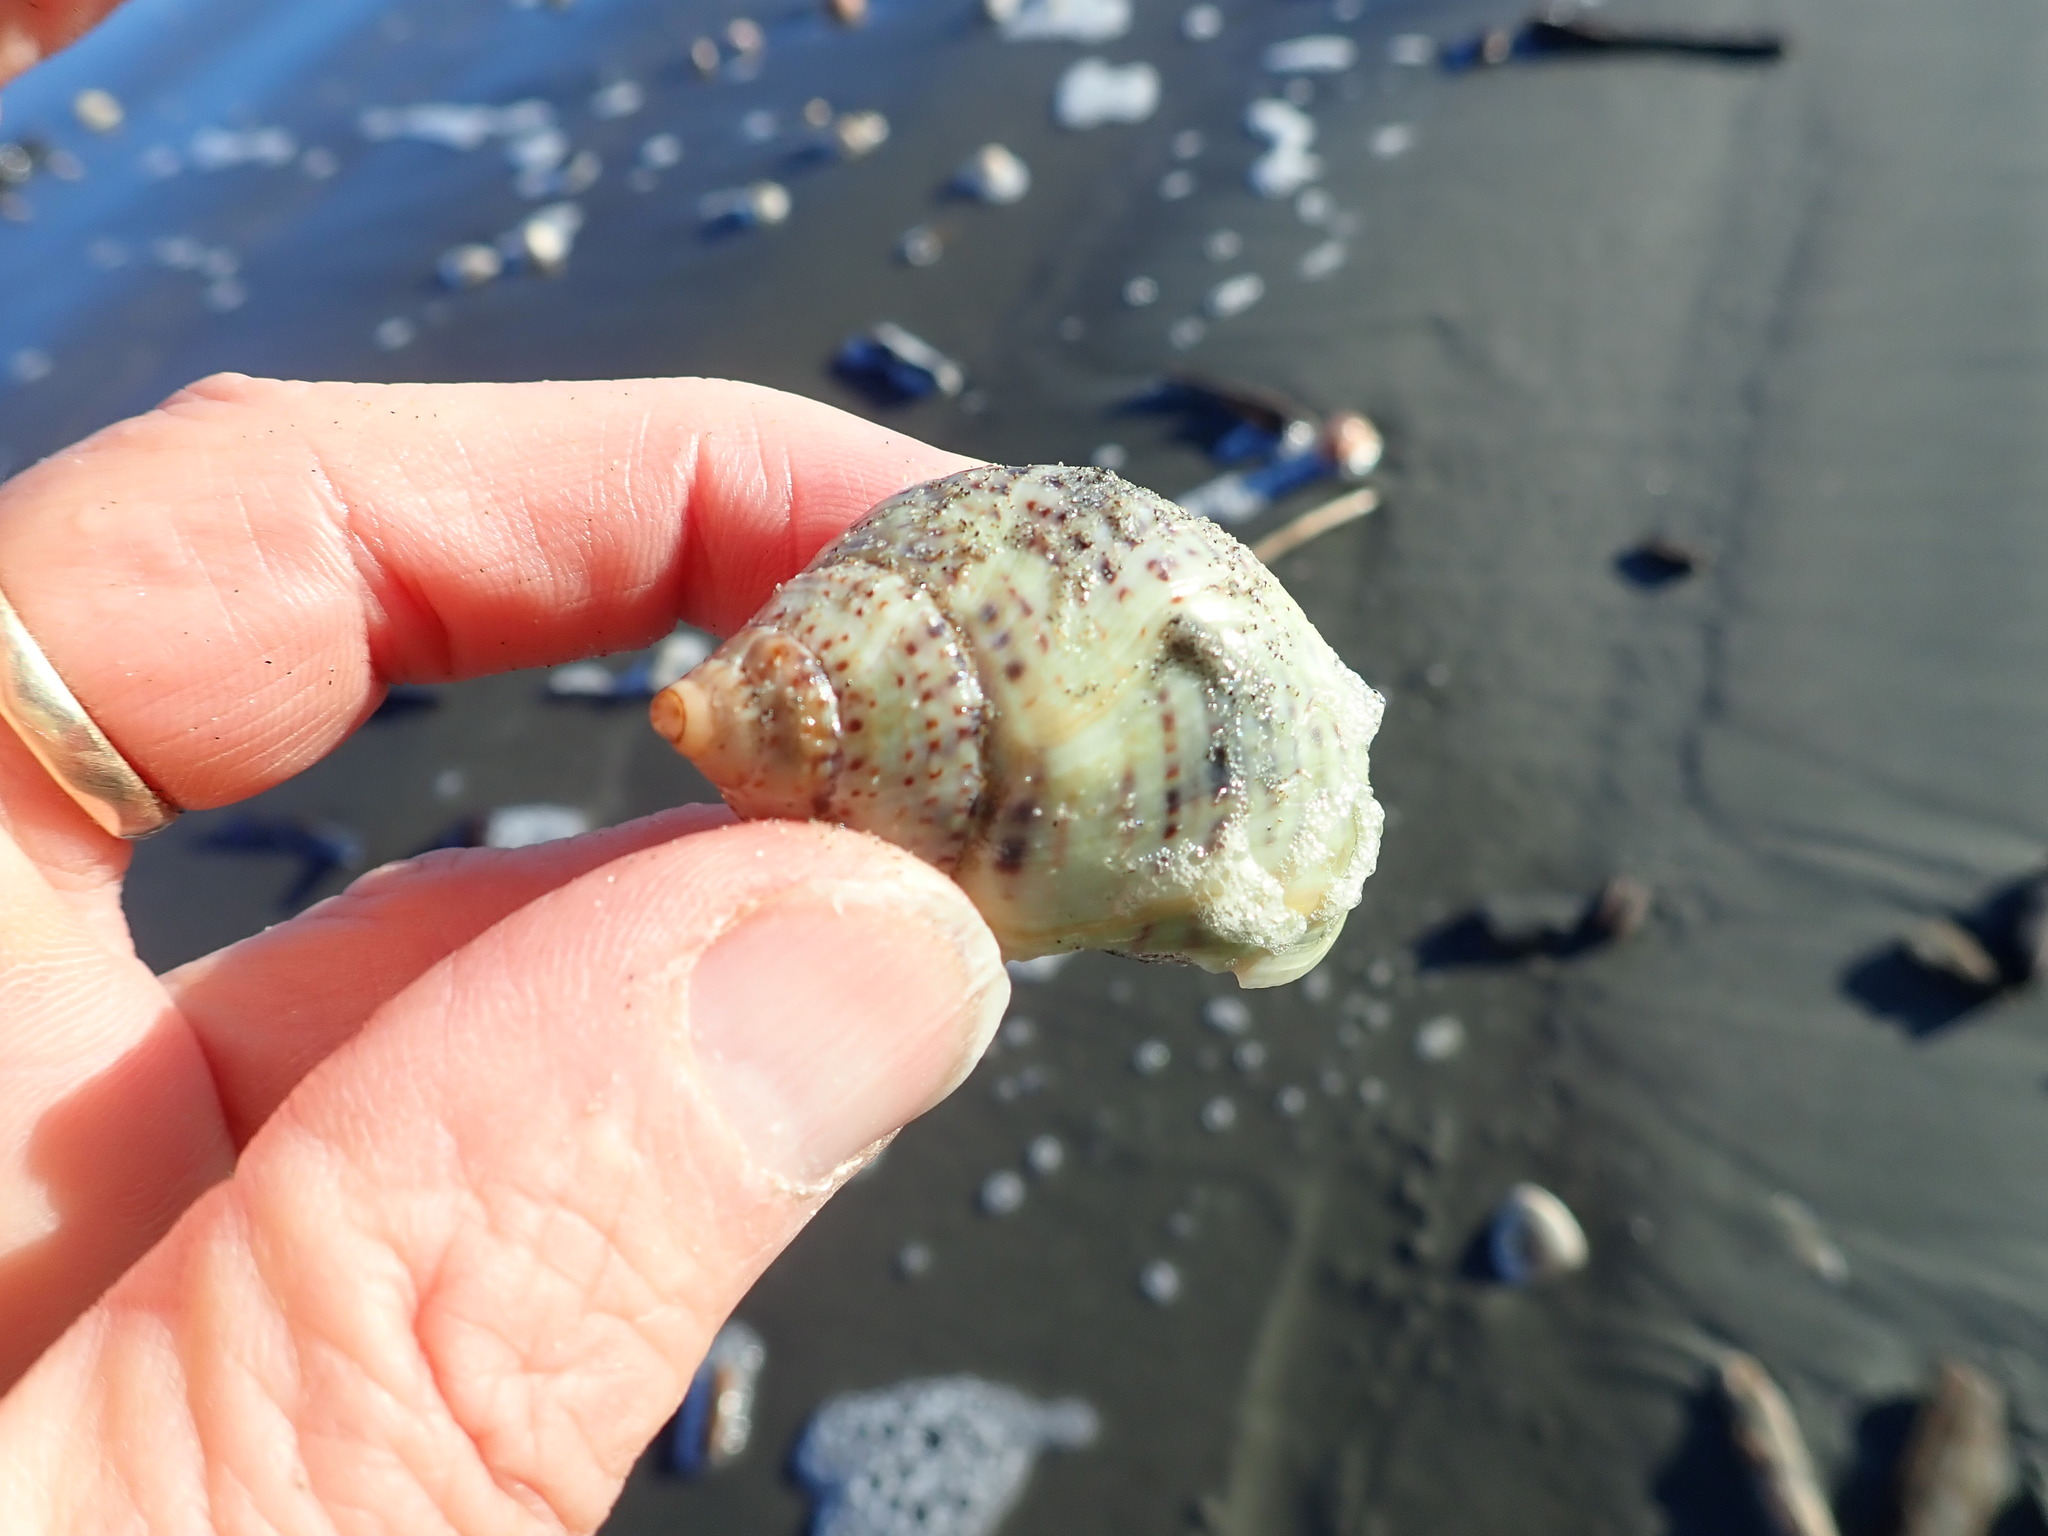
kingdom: Animalia
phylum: Mollusca
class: Gastropoda
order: Neogastropoda
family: Cominellidae
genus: Cominella
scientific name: Cominella adspersa
